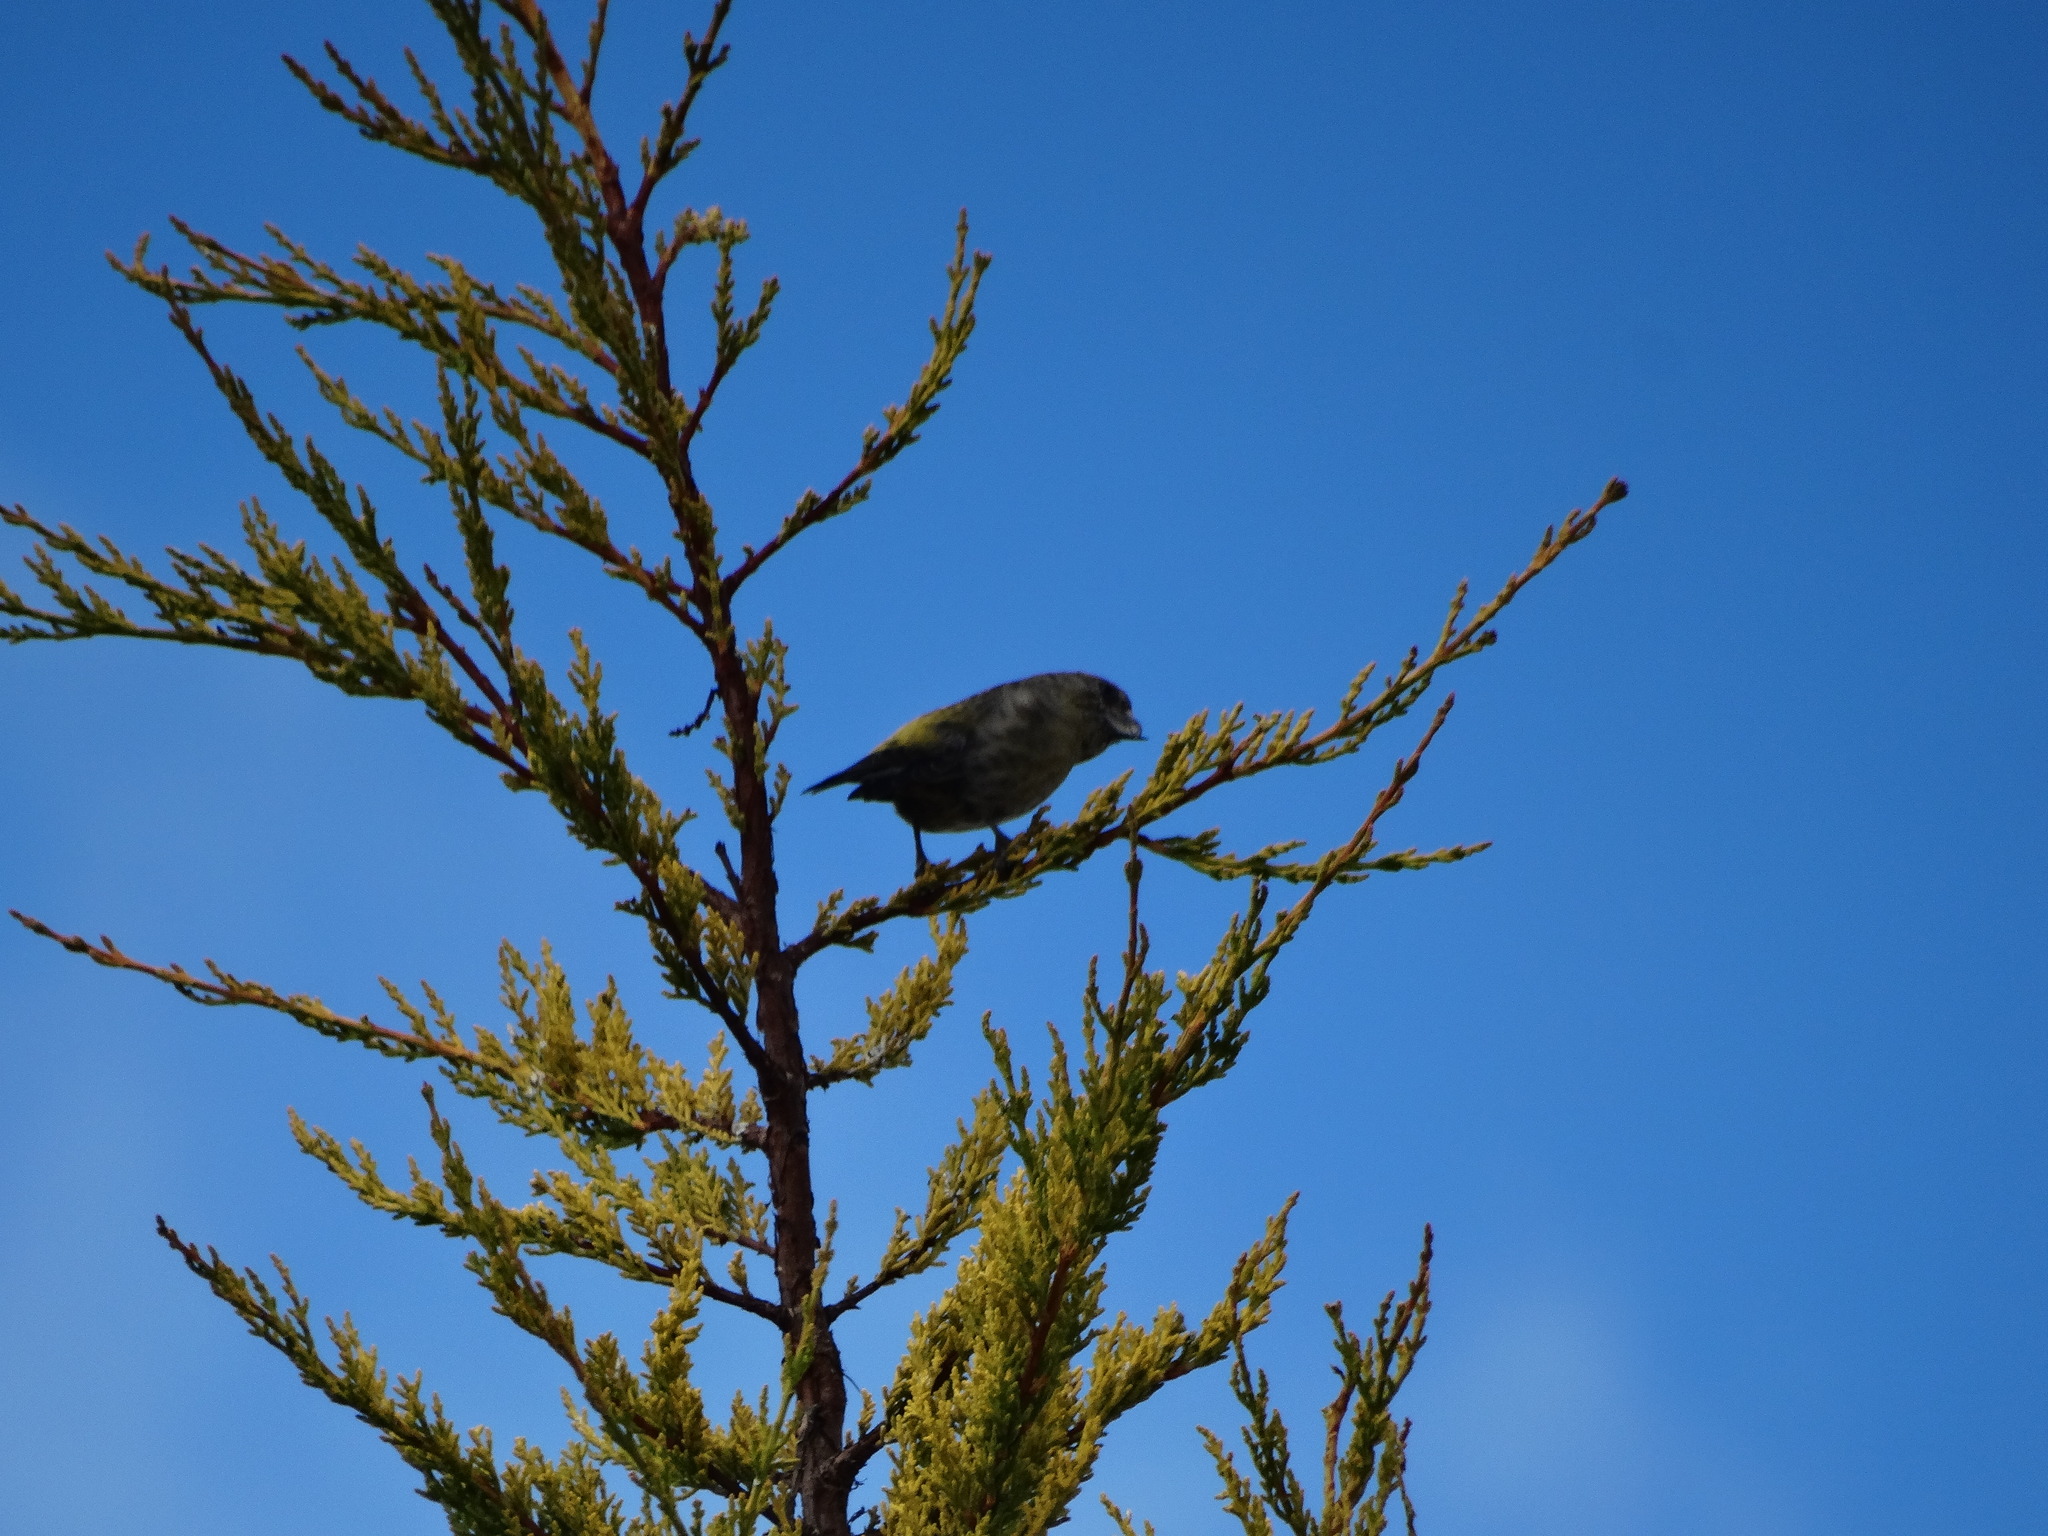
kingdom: Animalia
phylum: Chordata
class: Aves
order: Passeriformes
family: Fringillidae
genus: Loxia
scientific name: Loxia curvirostra
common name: Red crossbill
